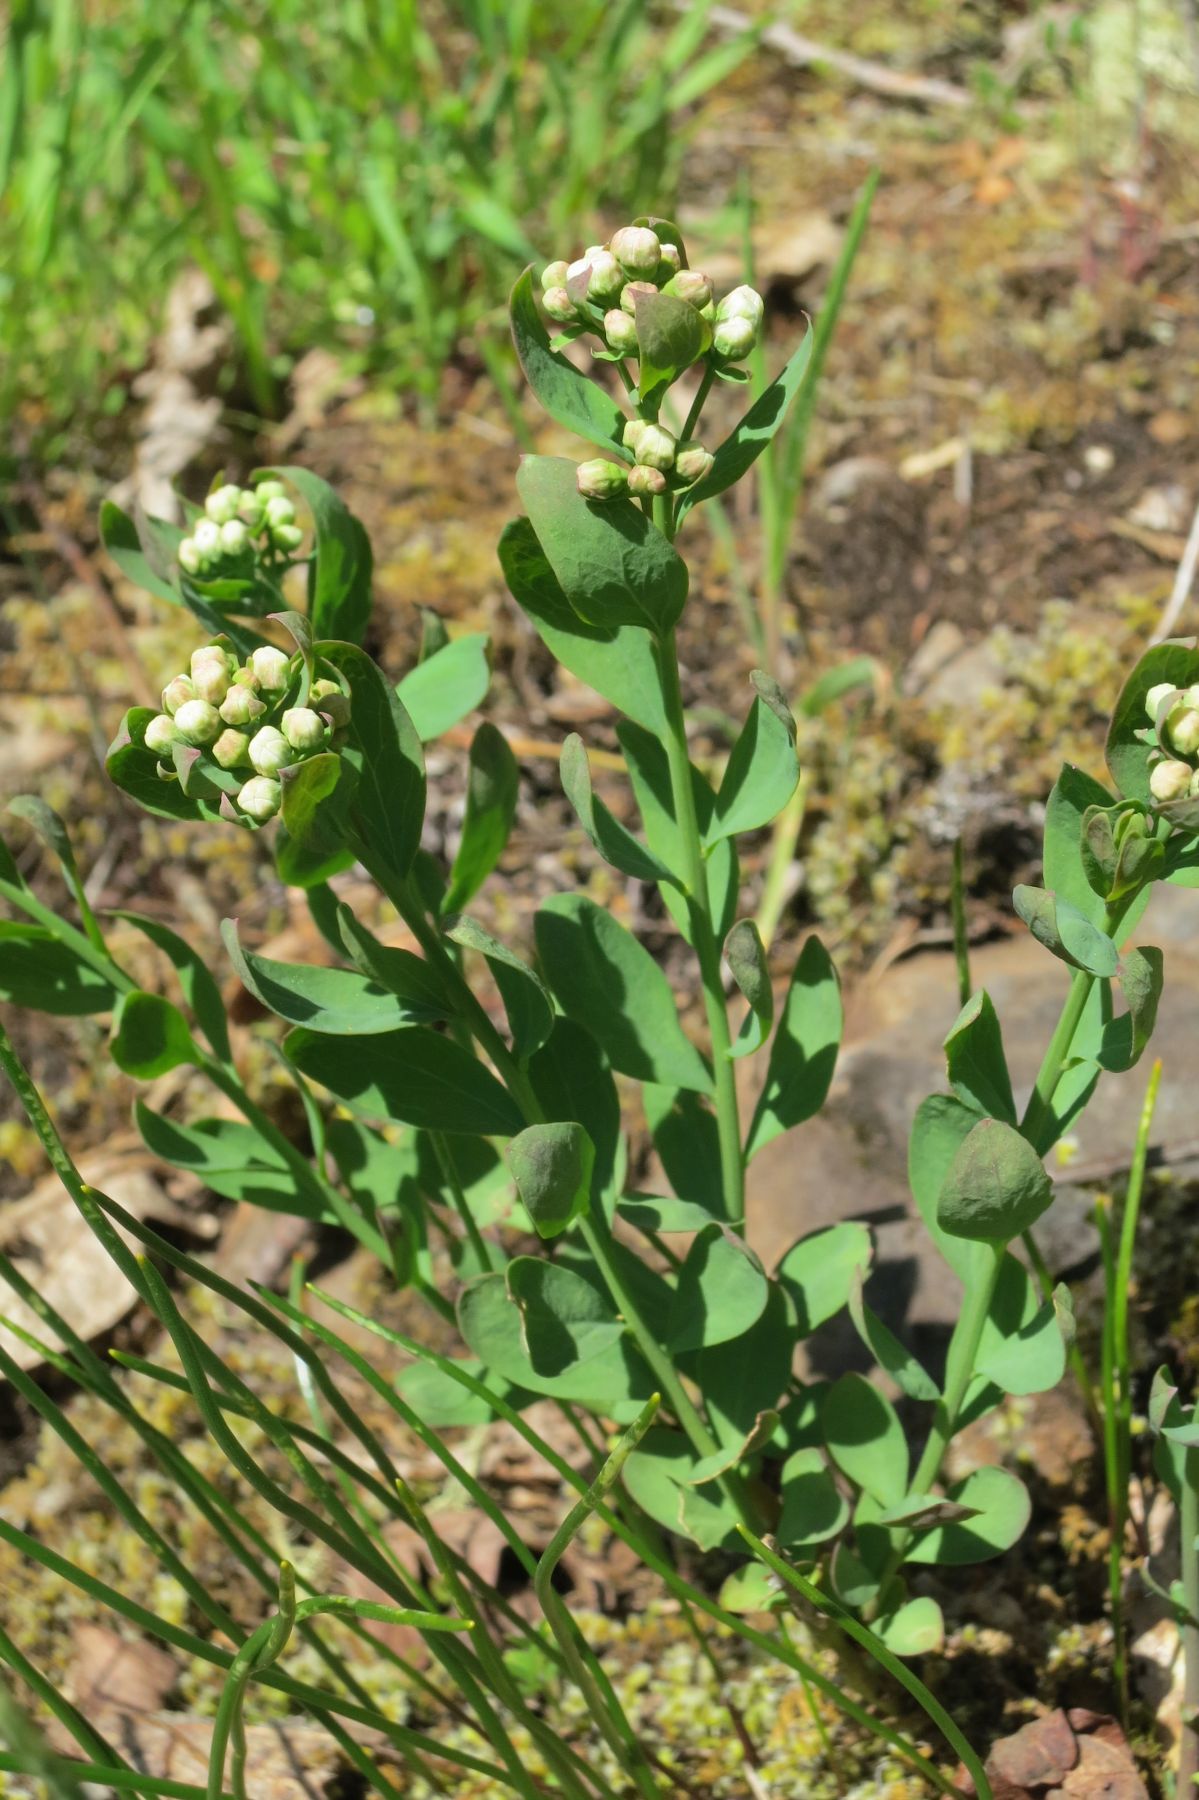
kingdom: Plantae
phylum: Tracheophyta
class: Magnoliopsida
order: Santalales
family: Comandraceae
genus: Comandra
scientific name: Comandra umbellata
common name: Bastard toadflax
